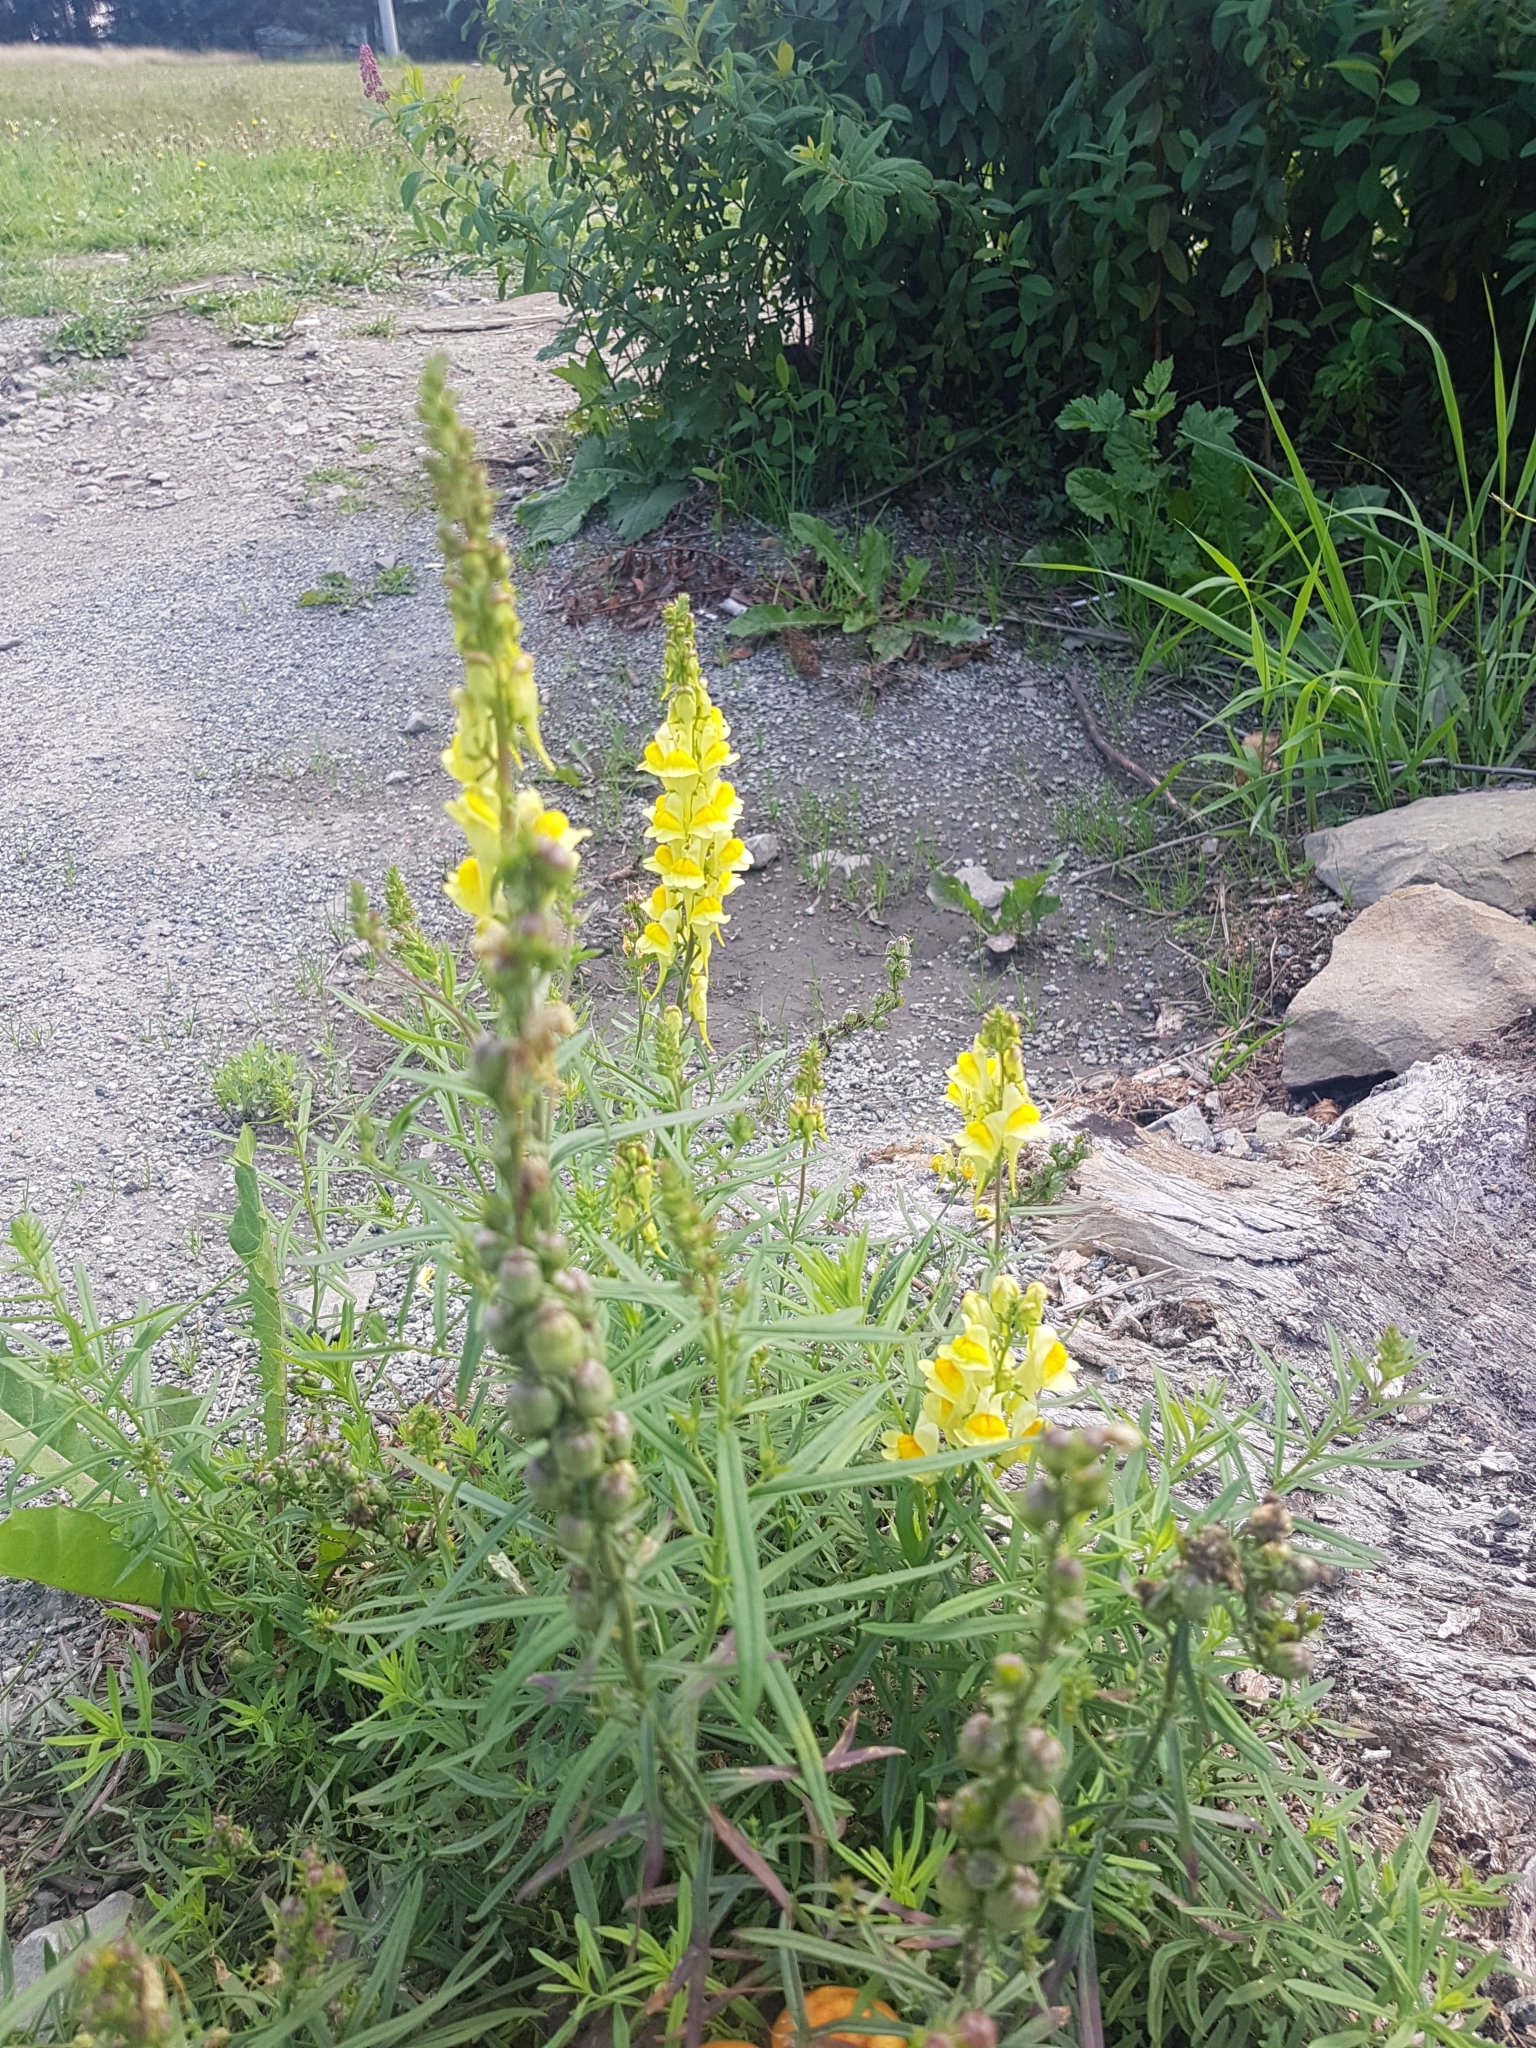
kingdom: Plantae
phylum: Tracheophyta
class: Magnoliopsida
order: Lamiales
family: Plantaginaceae
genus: Linaria
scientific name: Linaria vulgaris
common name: Butter and eggs
